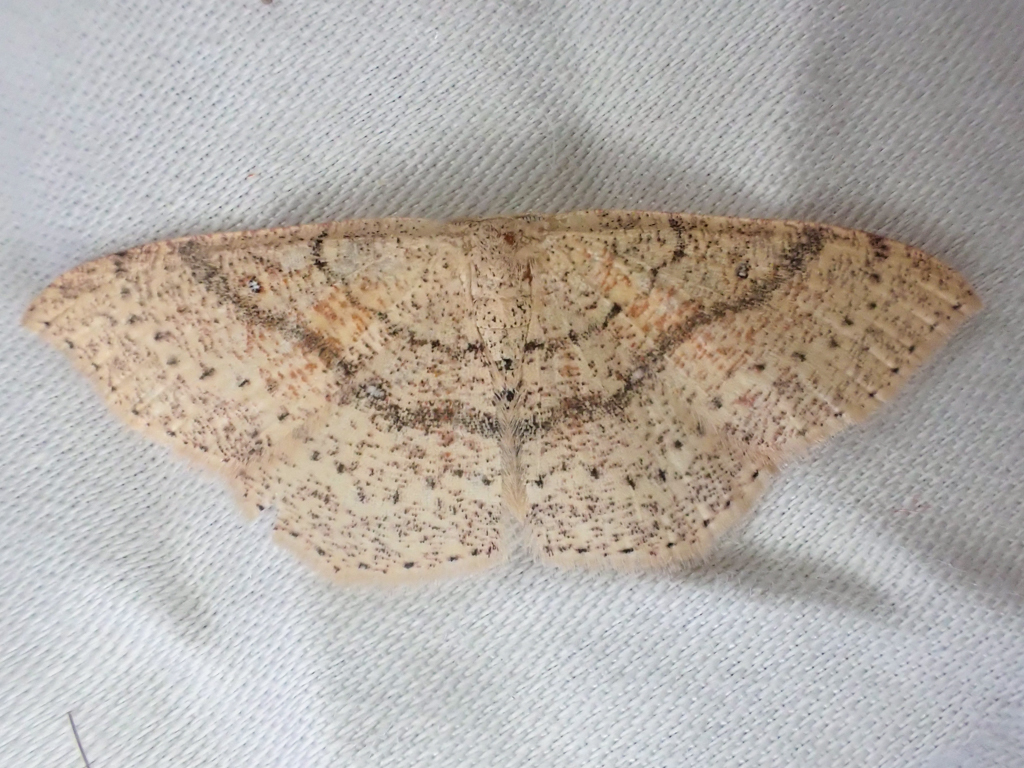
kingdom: Animalia
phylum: Arthropoda
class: Insecta
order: Lepidoptera
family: Geometridae
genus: Cyclophora
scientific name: Cyclophora dataria
